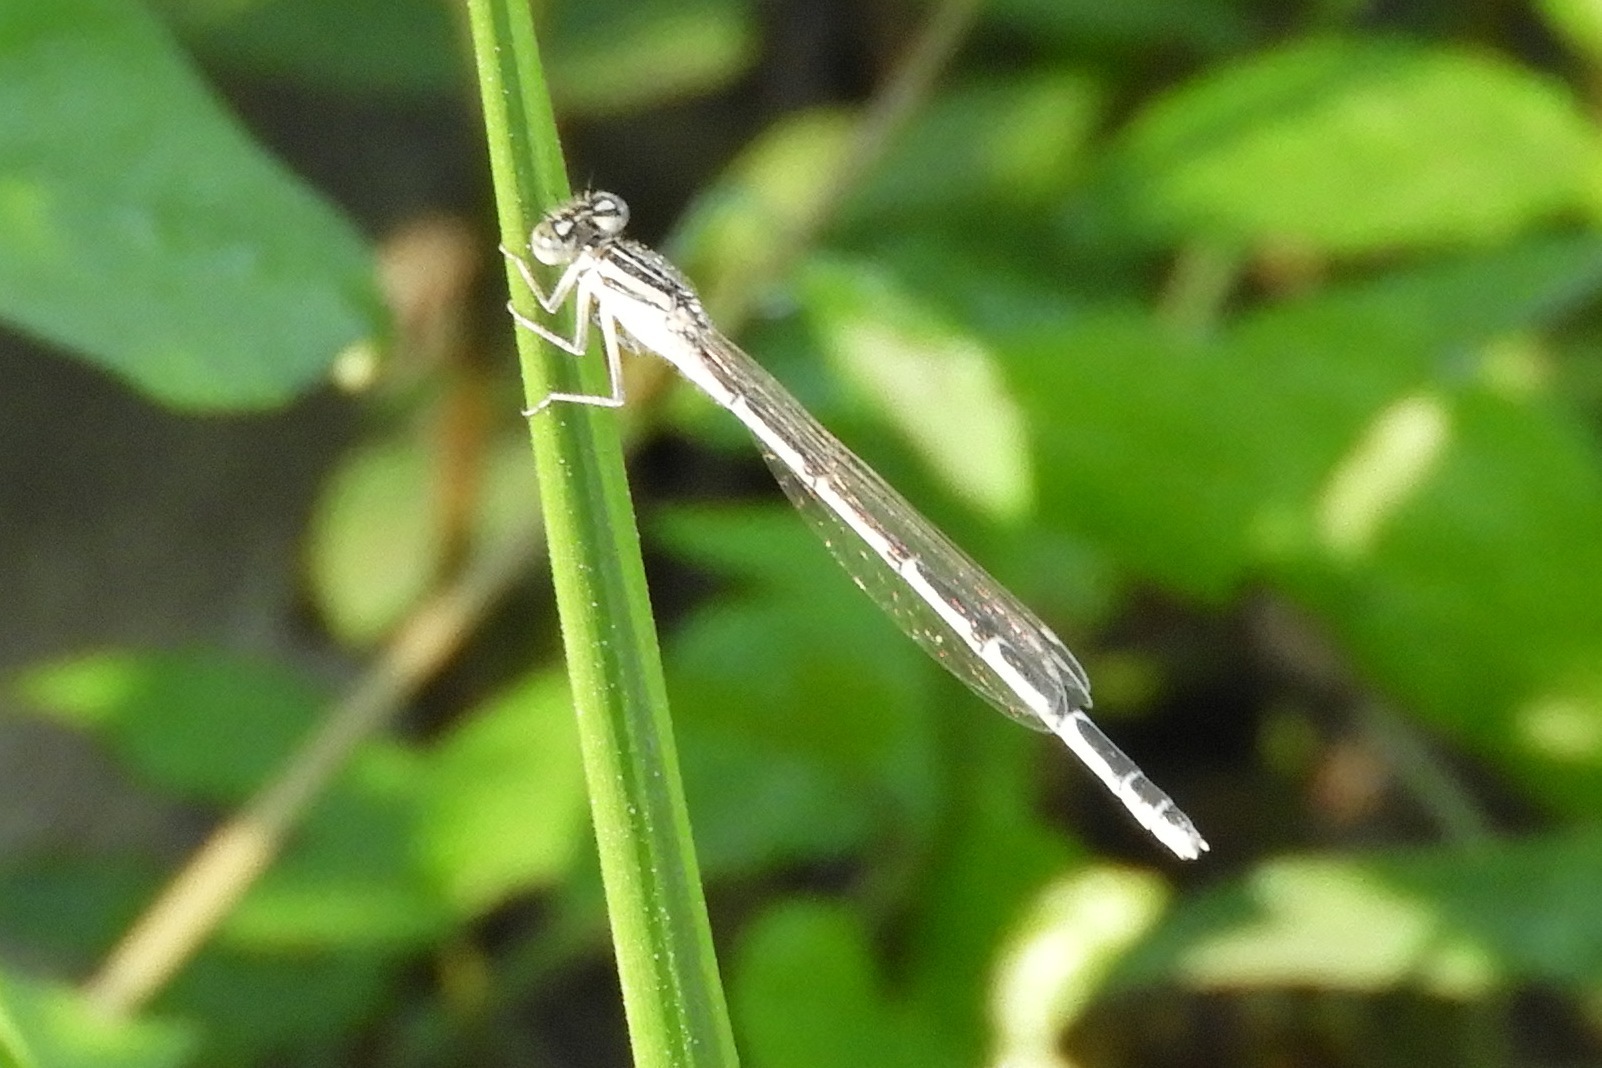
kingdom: Animalia
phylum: Arthropoda
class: Insecta
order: Odonata
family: Coenagrionidae
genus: Enallagma
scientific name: Enallagma durum
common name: Big bluet
